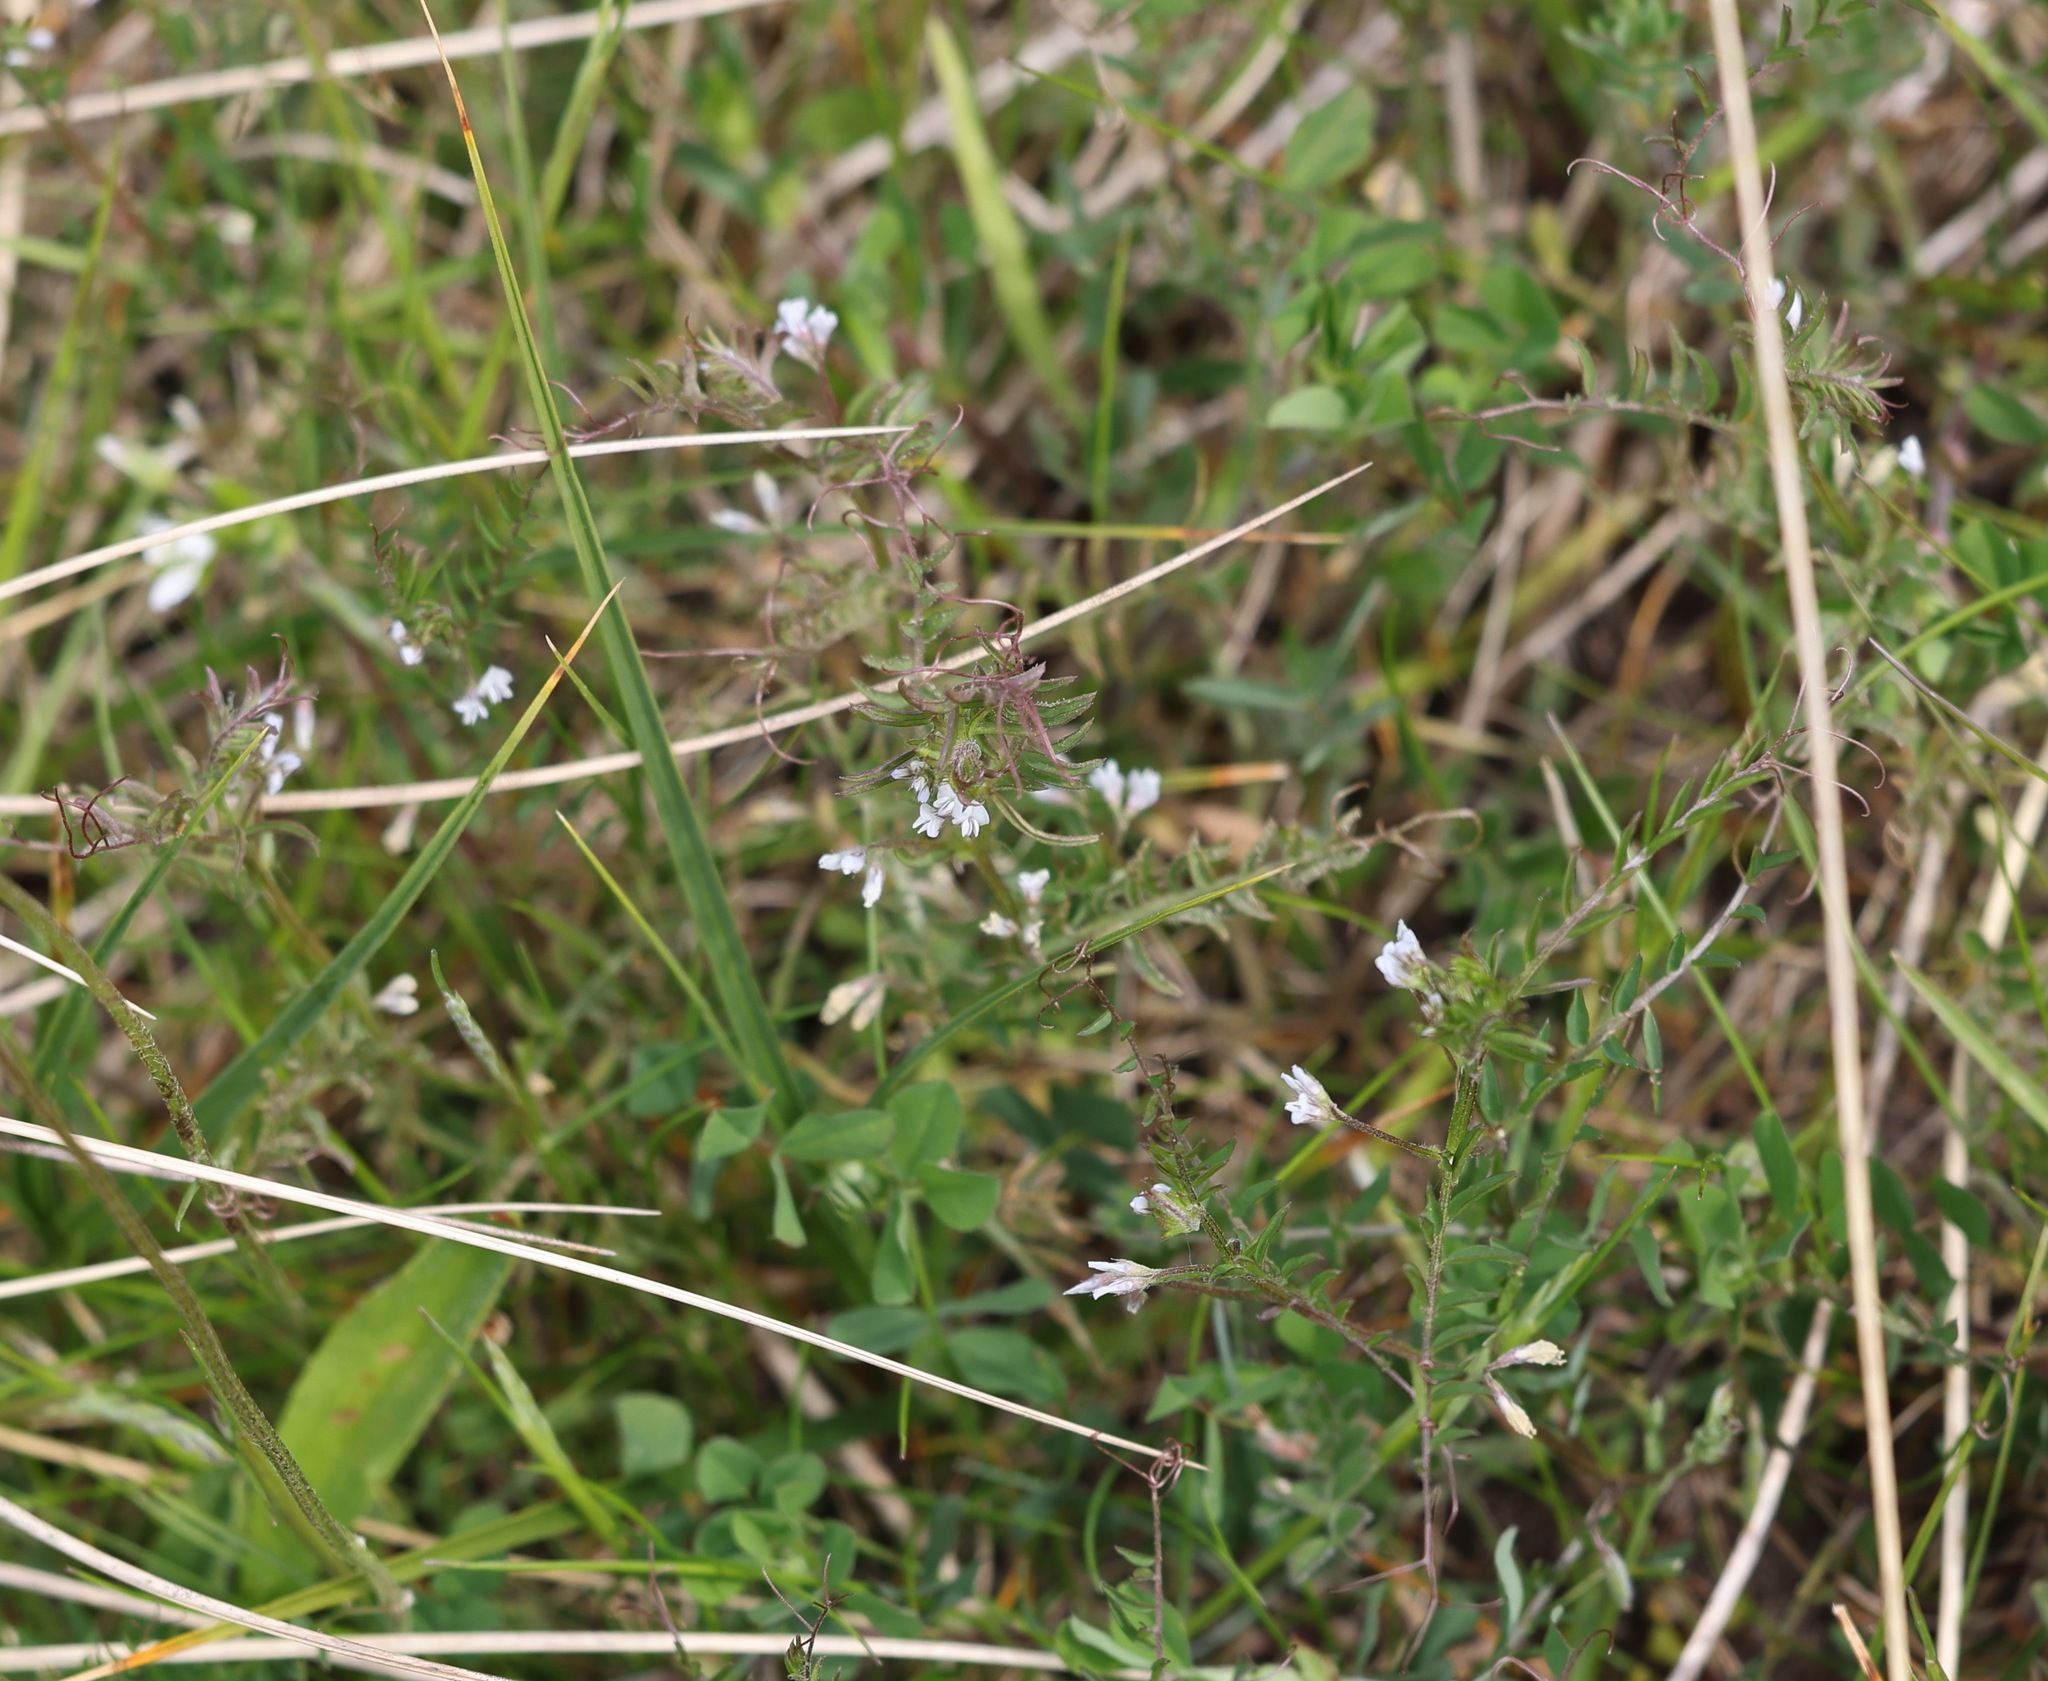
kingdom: Plantae
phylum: Tracheophyta
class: Magnoliopsida
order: Fabales
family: Fabaceae
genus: Vicia
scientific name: Vicia hirsuta
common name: Tiny vetch
